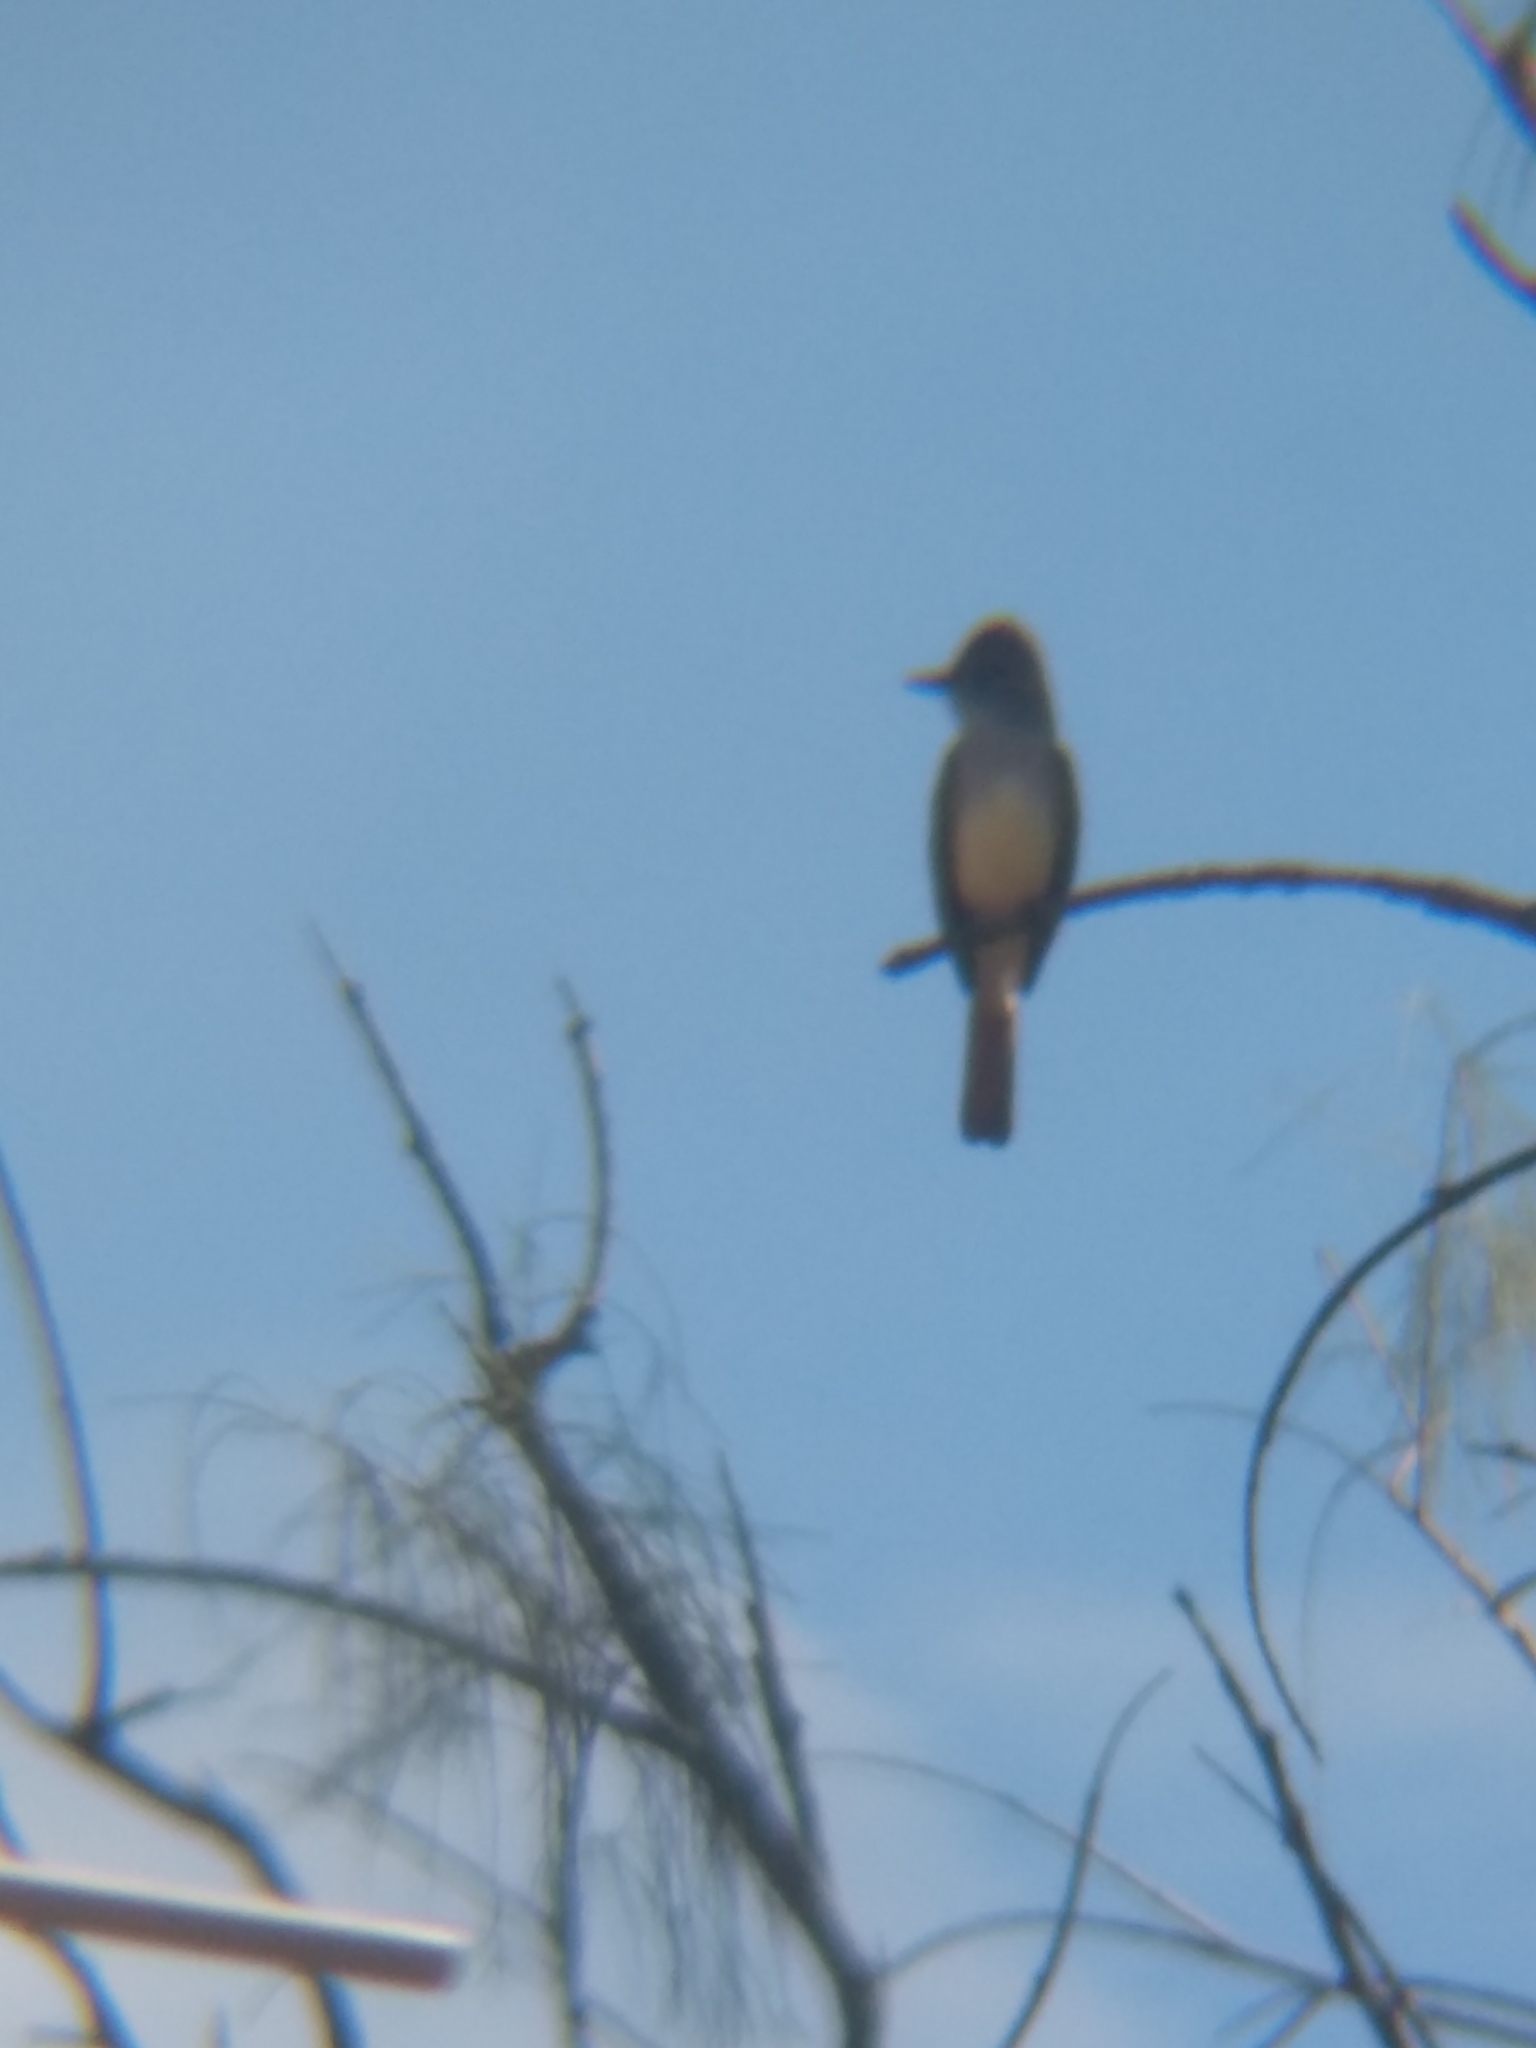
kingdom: Animalia
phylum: Chordata
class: Aves
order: Passeriformes
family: Tyrannidae
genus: Myiarchus
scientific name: Myiarchus cinerascens
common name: Ash-throated flycatcher
